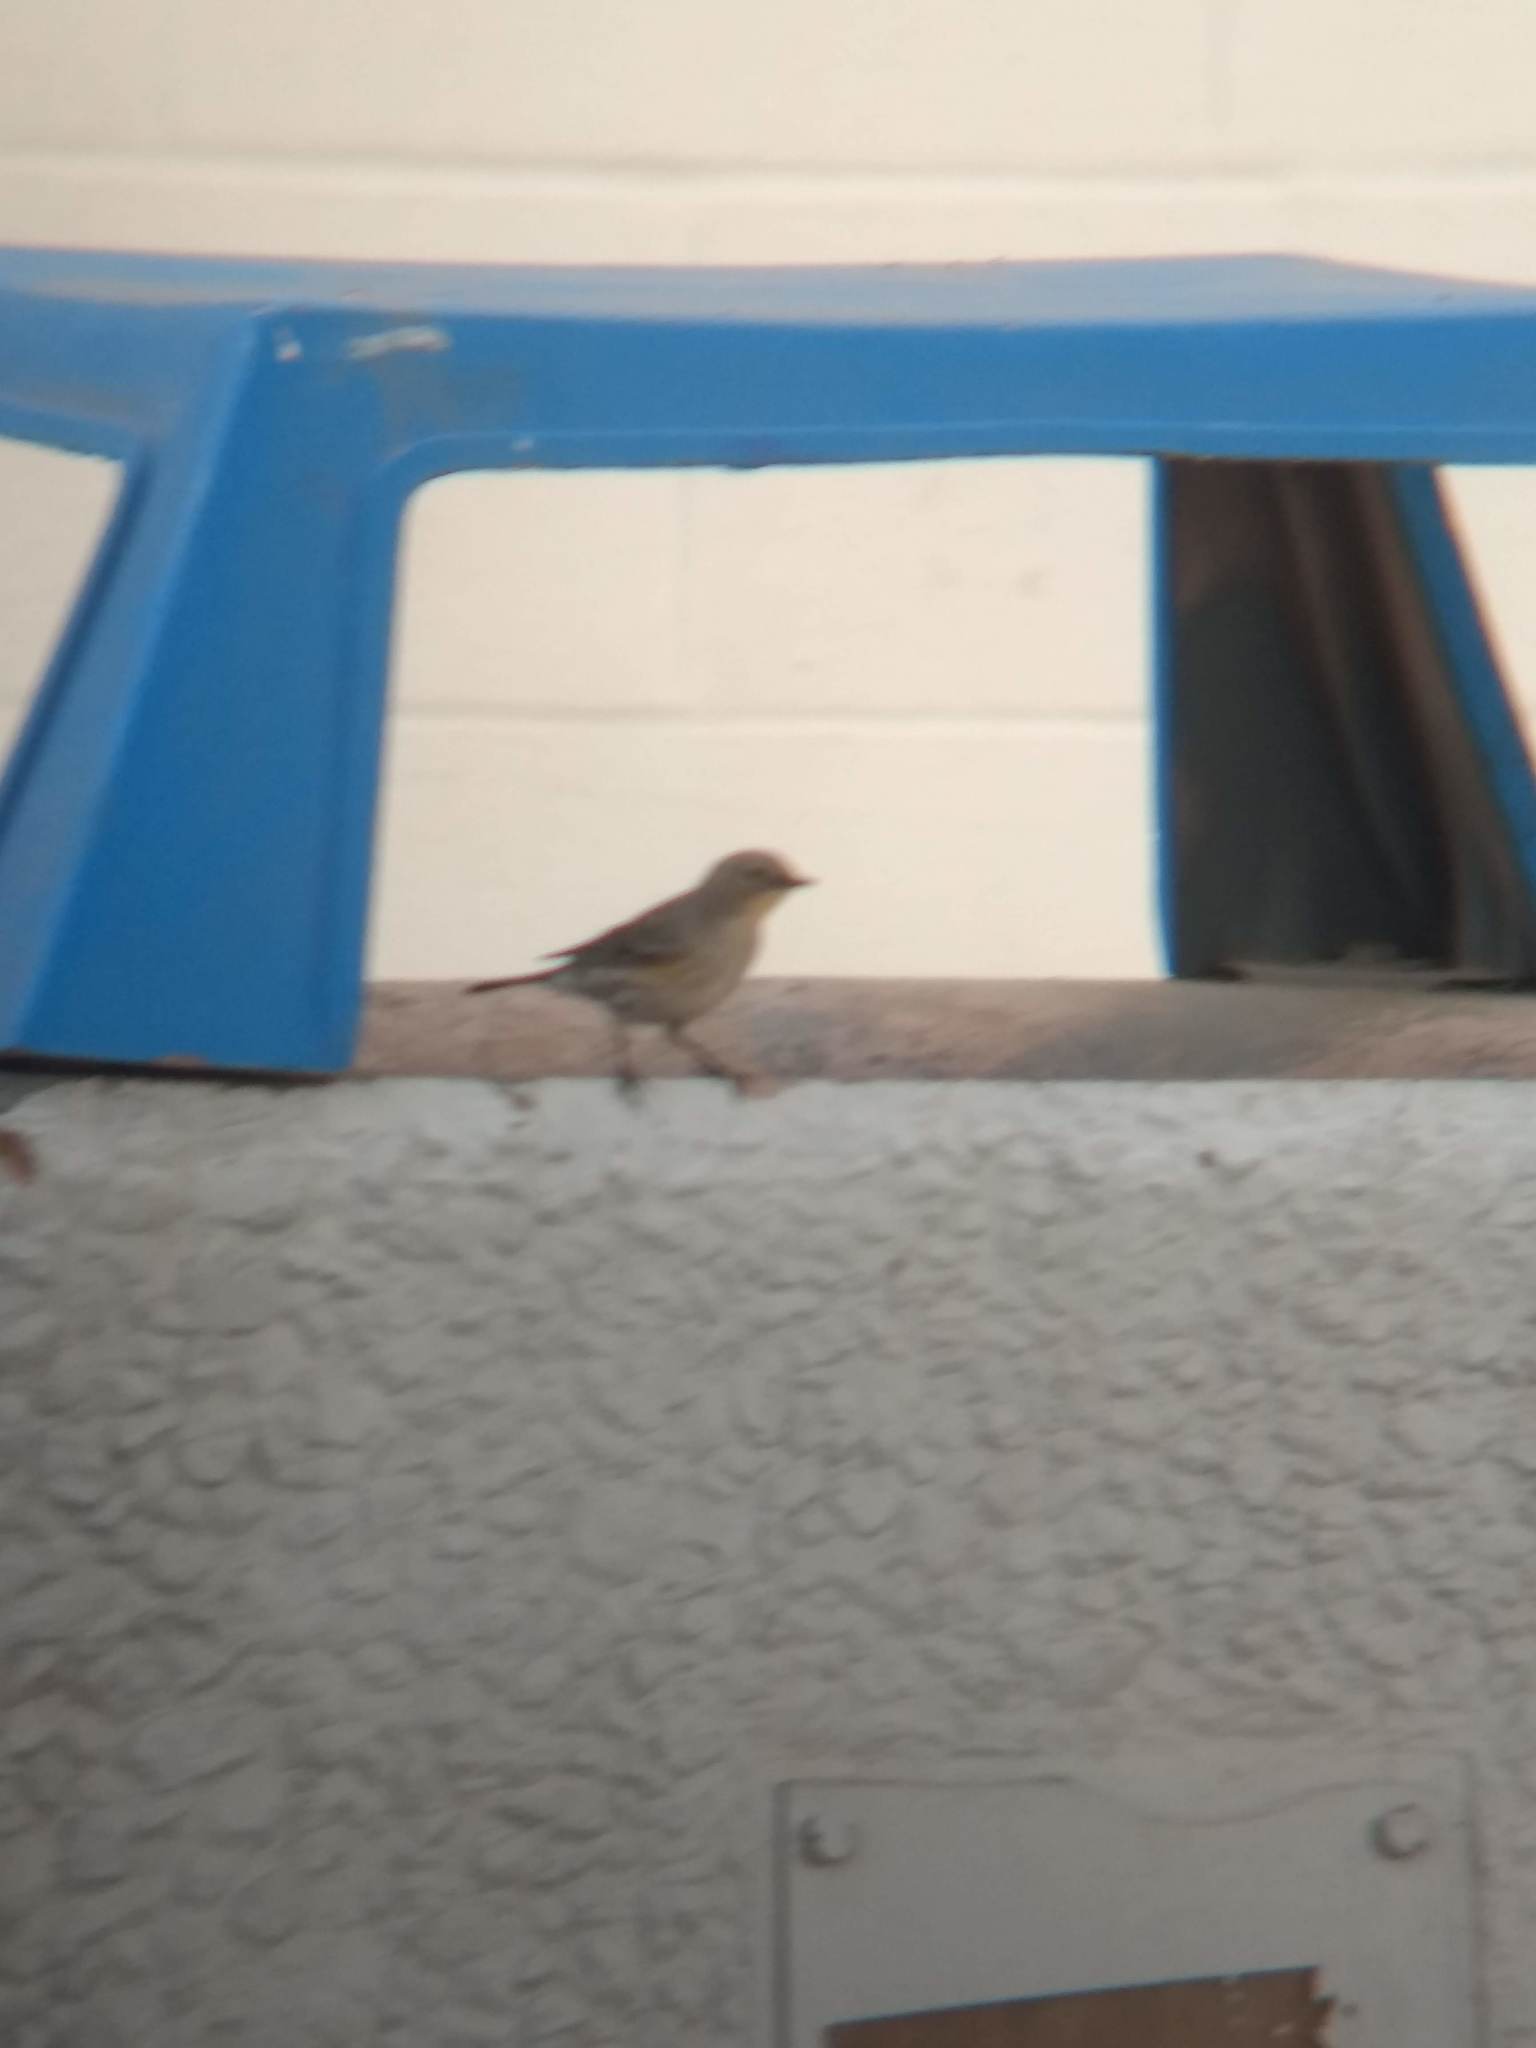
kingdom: Animalia
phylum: Chordata
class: Aves
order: Passeriformes
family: Parulidae
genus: Setophaga
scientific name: Setophaga coronata
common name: Myrtle warbler
